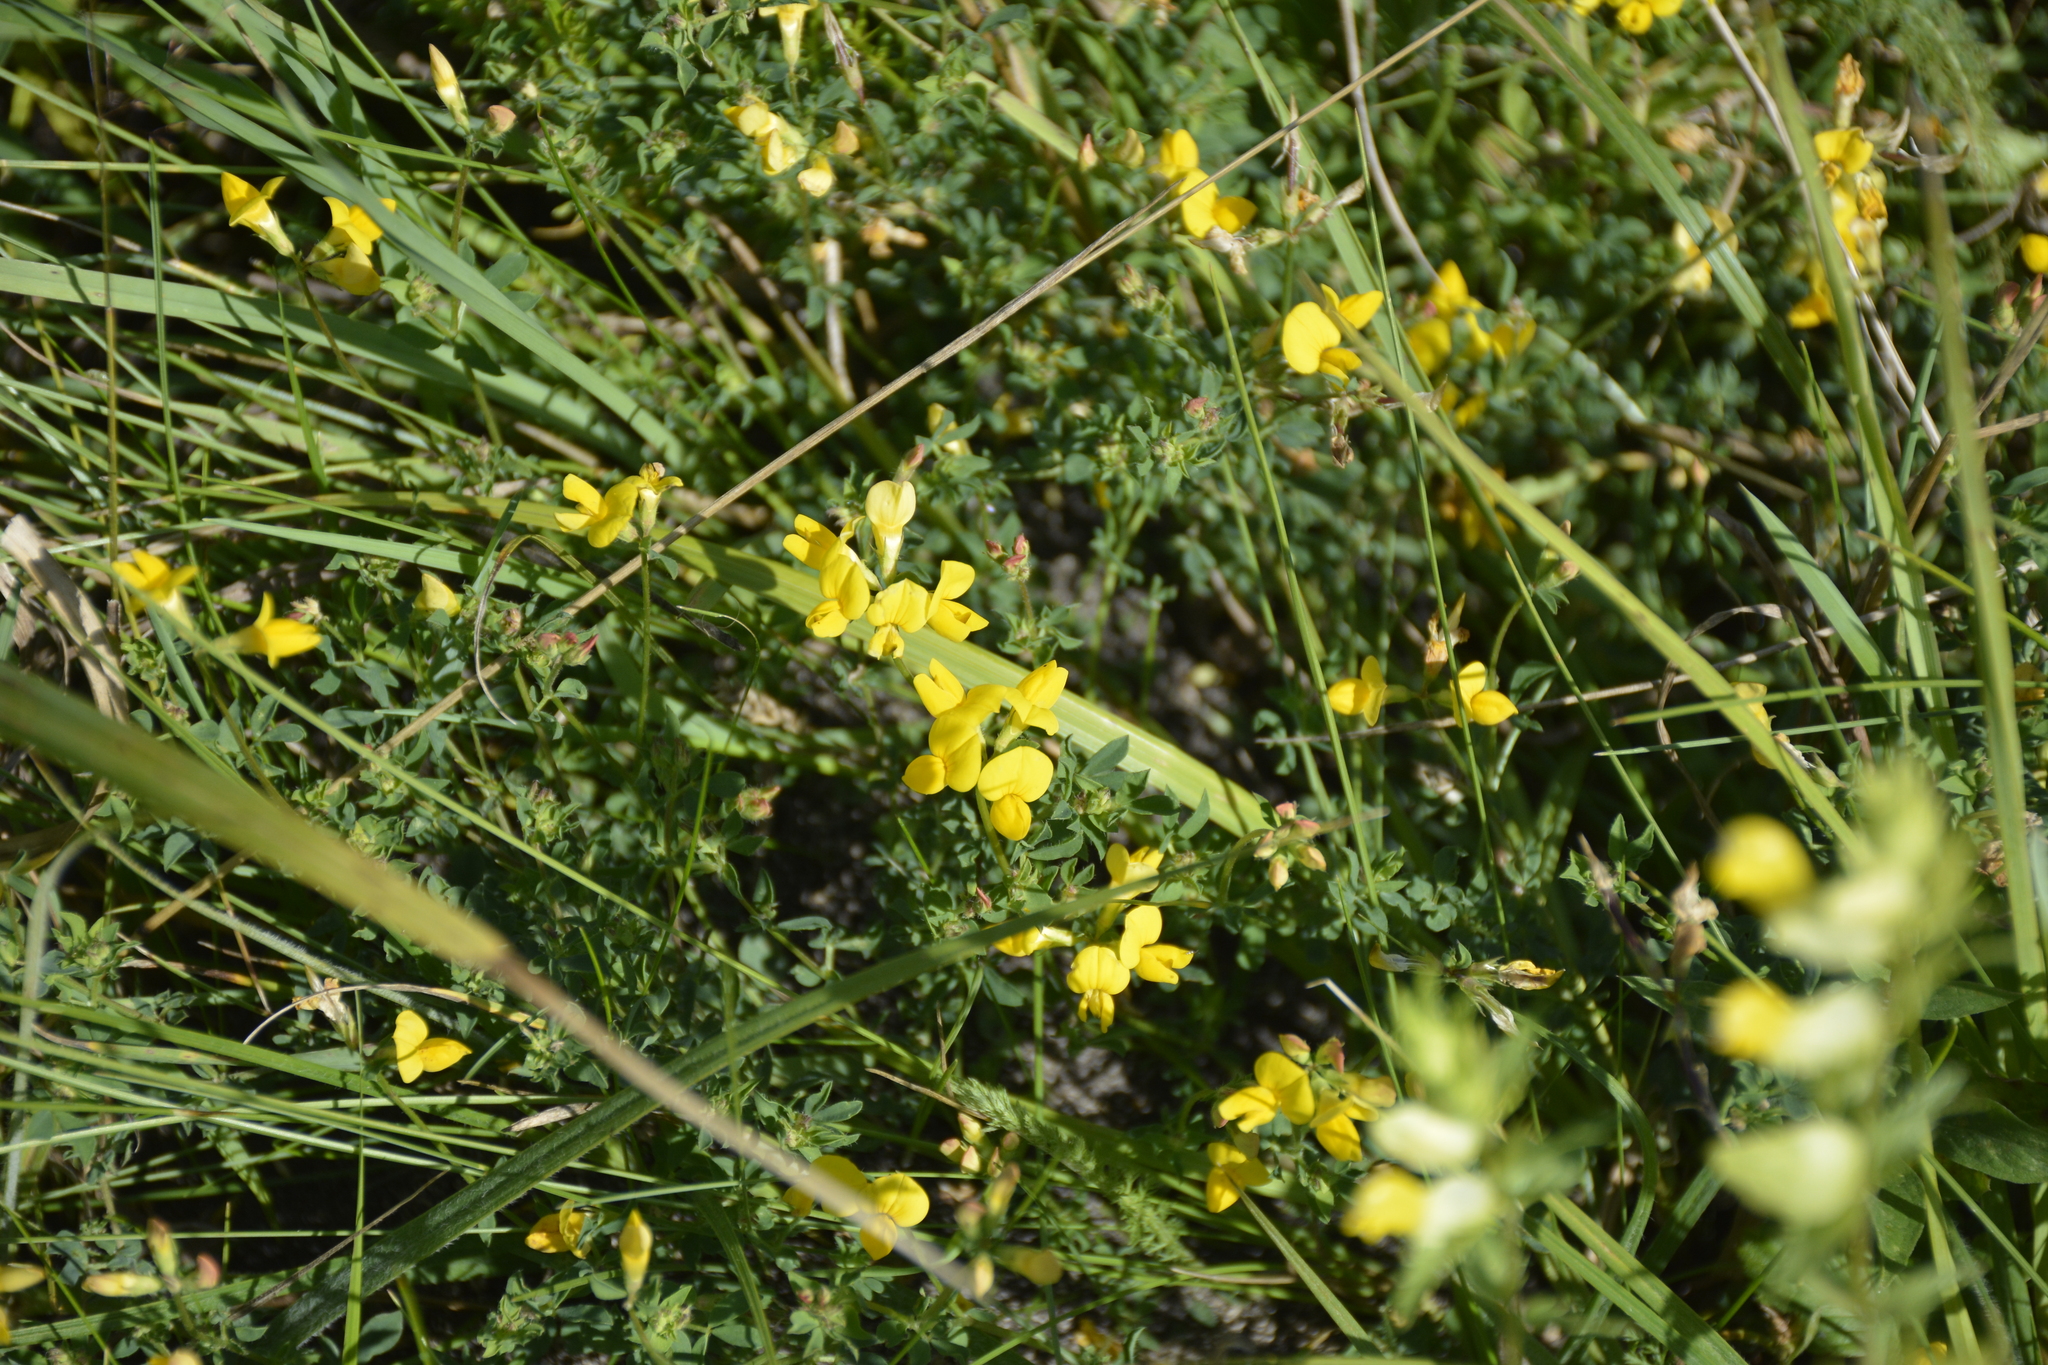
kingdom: Plantae
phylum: Tracheophyta
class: Magnoliopsida
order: Fabales
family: Fabaceae
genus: Lotus
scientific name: Lotus corniculatus
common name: Common bird's-foot-trefoil
